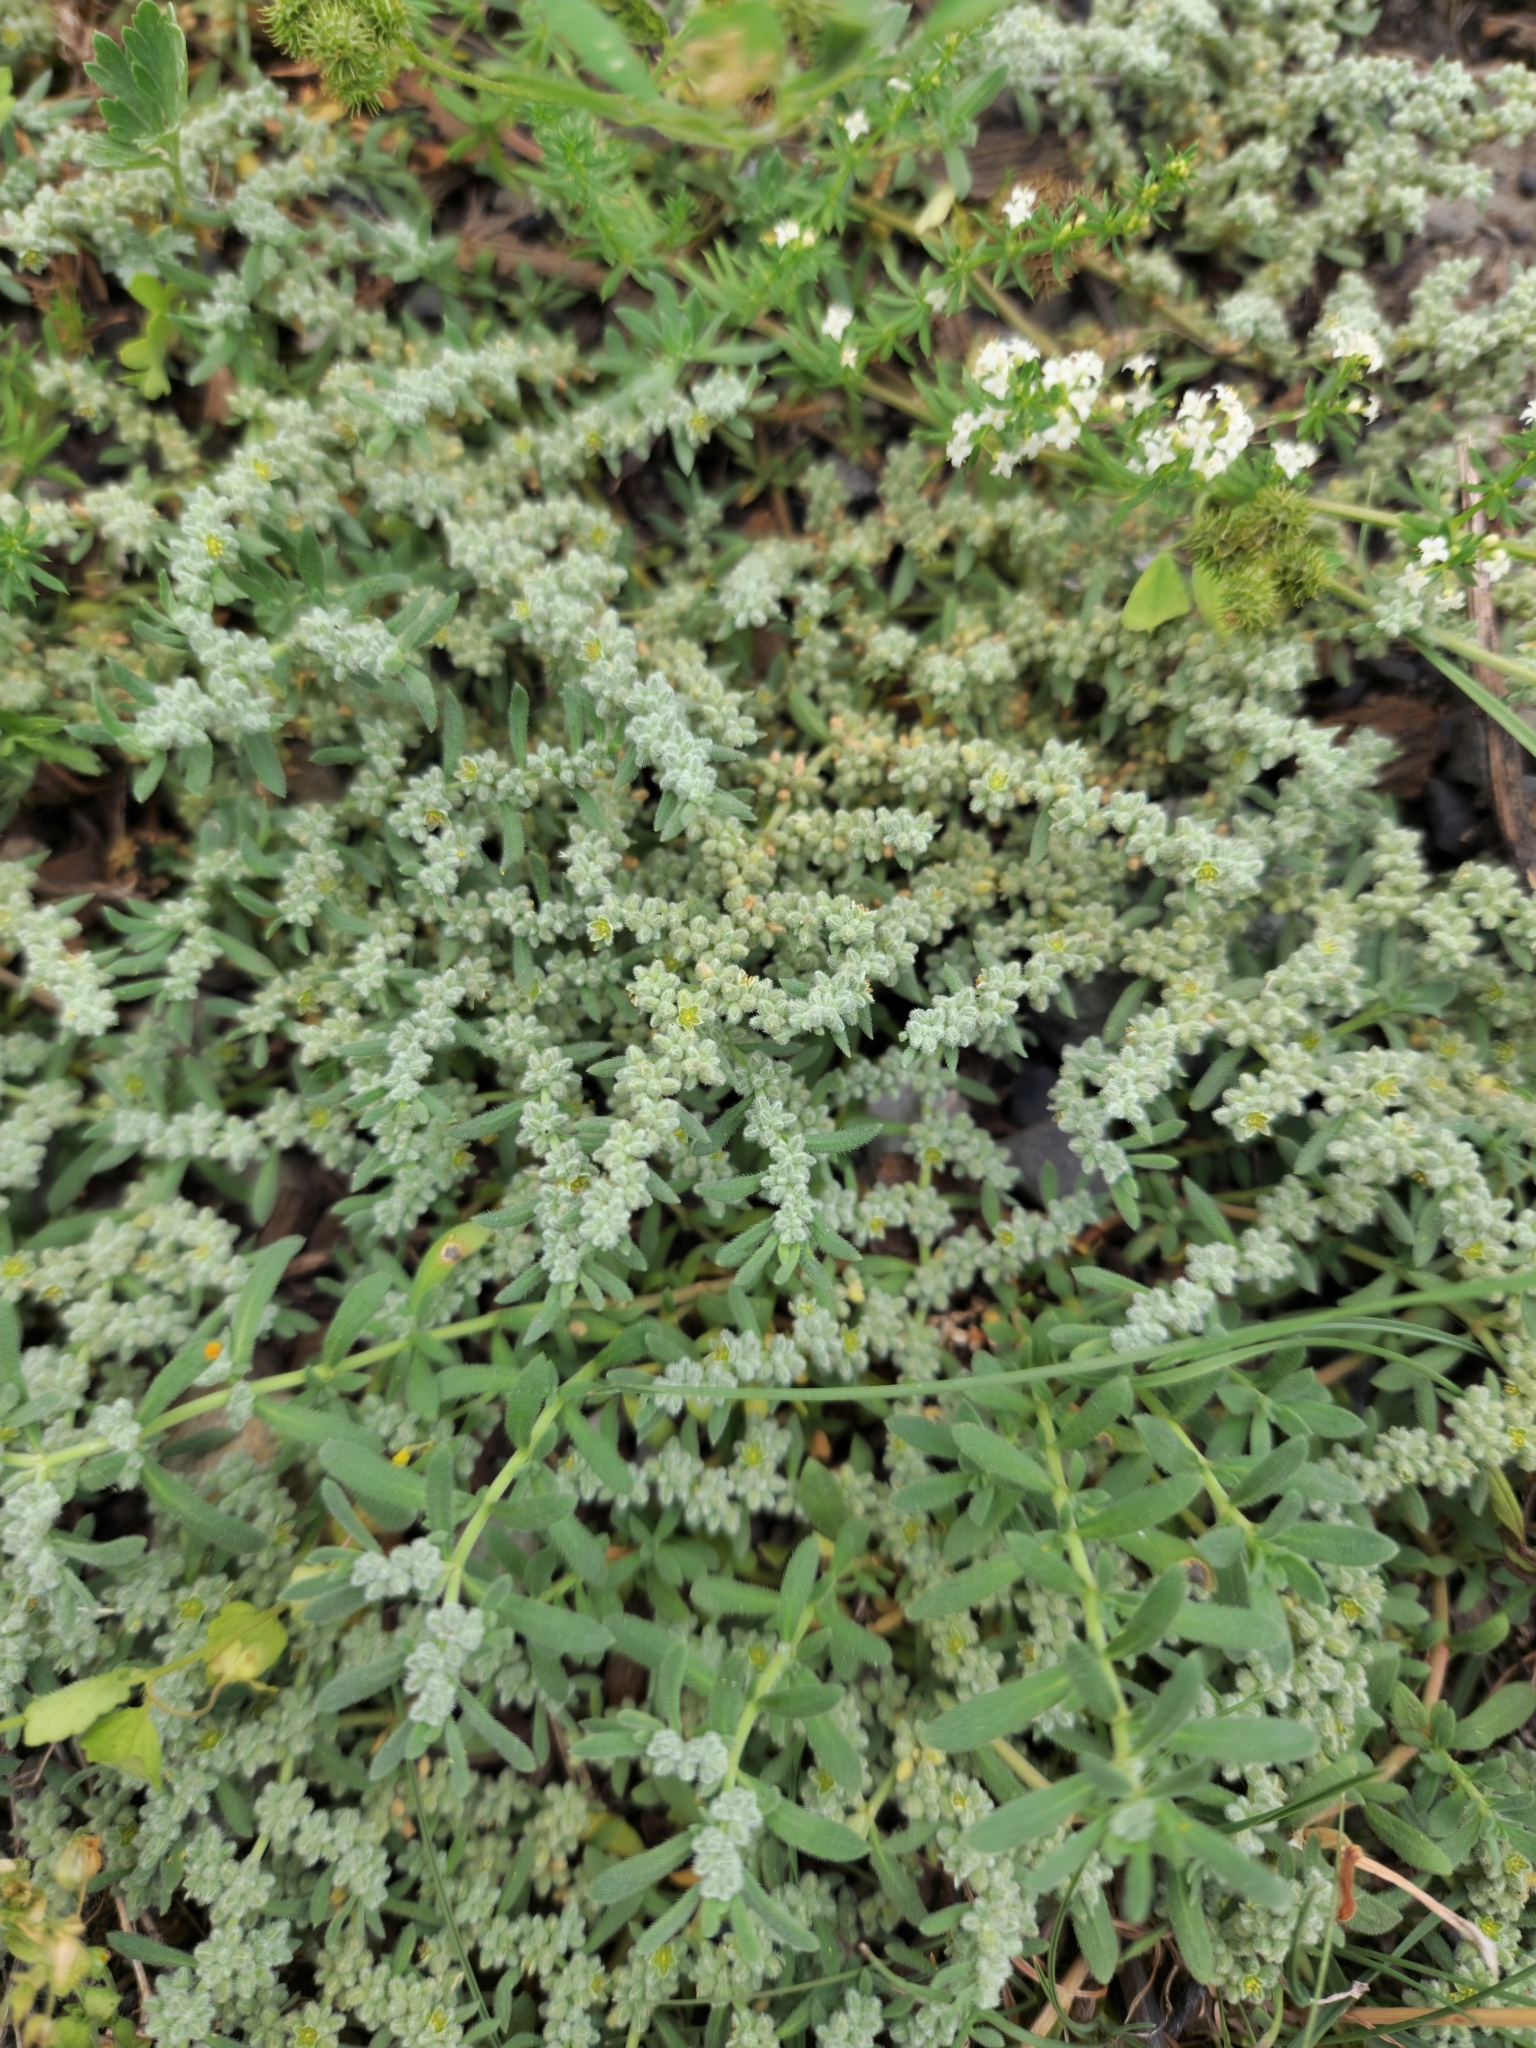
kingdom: Plantae
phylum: Tracheophyta
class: Magnoliopsida
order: Caryophyllales
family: Caryophyllaceae
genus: Herniaria
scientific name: Herniaria incana
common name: Gray rupturewort
